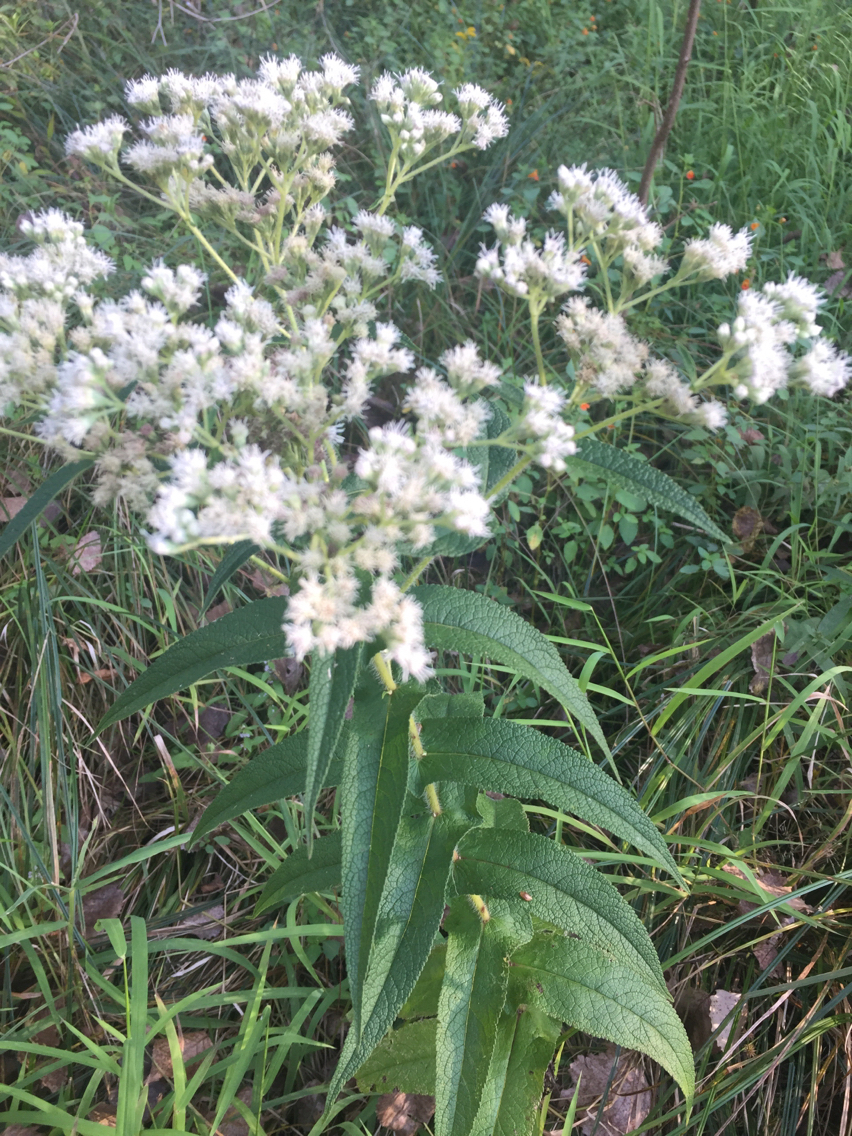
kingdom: Plantae
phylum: Tracheophyta
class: Magnoliopsida
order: Asterales
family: Asteraceae
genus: Eupatorium
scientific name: Eupatorium perfoliatum
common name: Boneset
